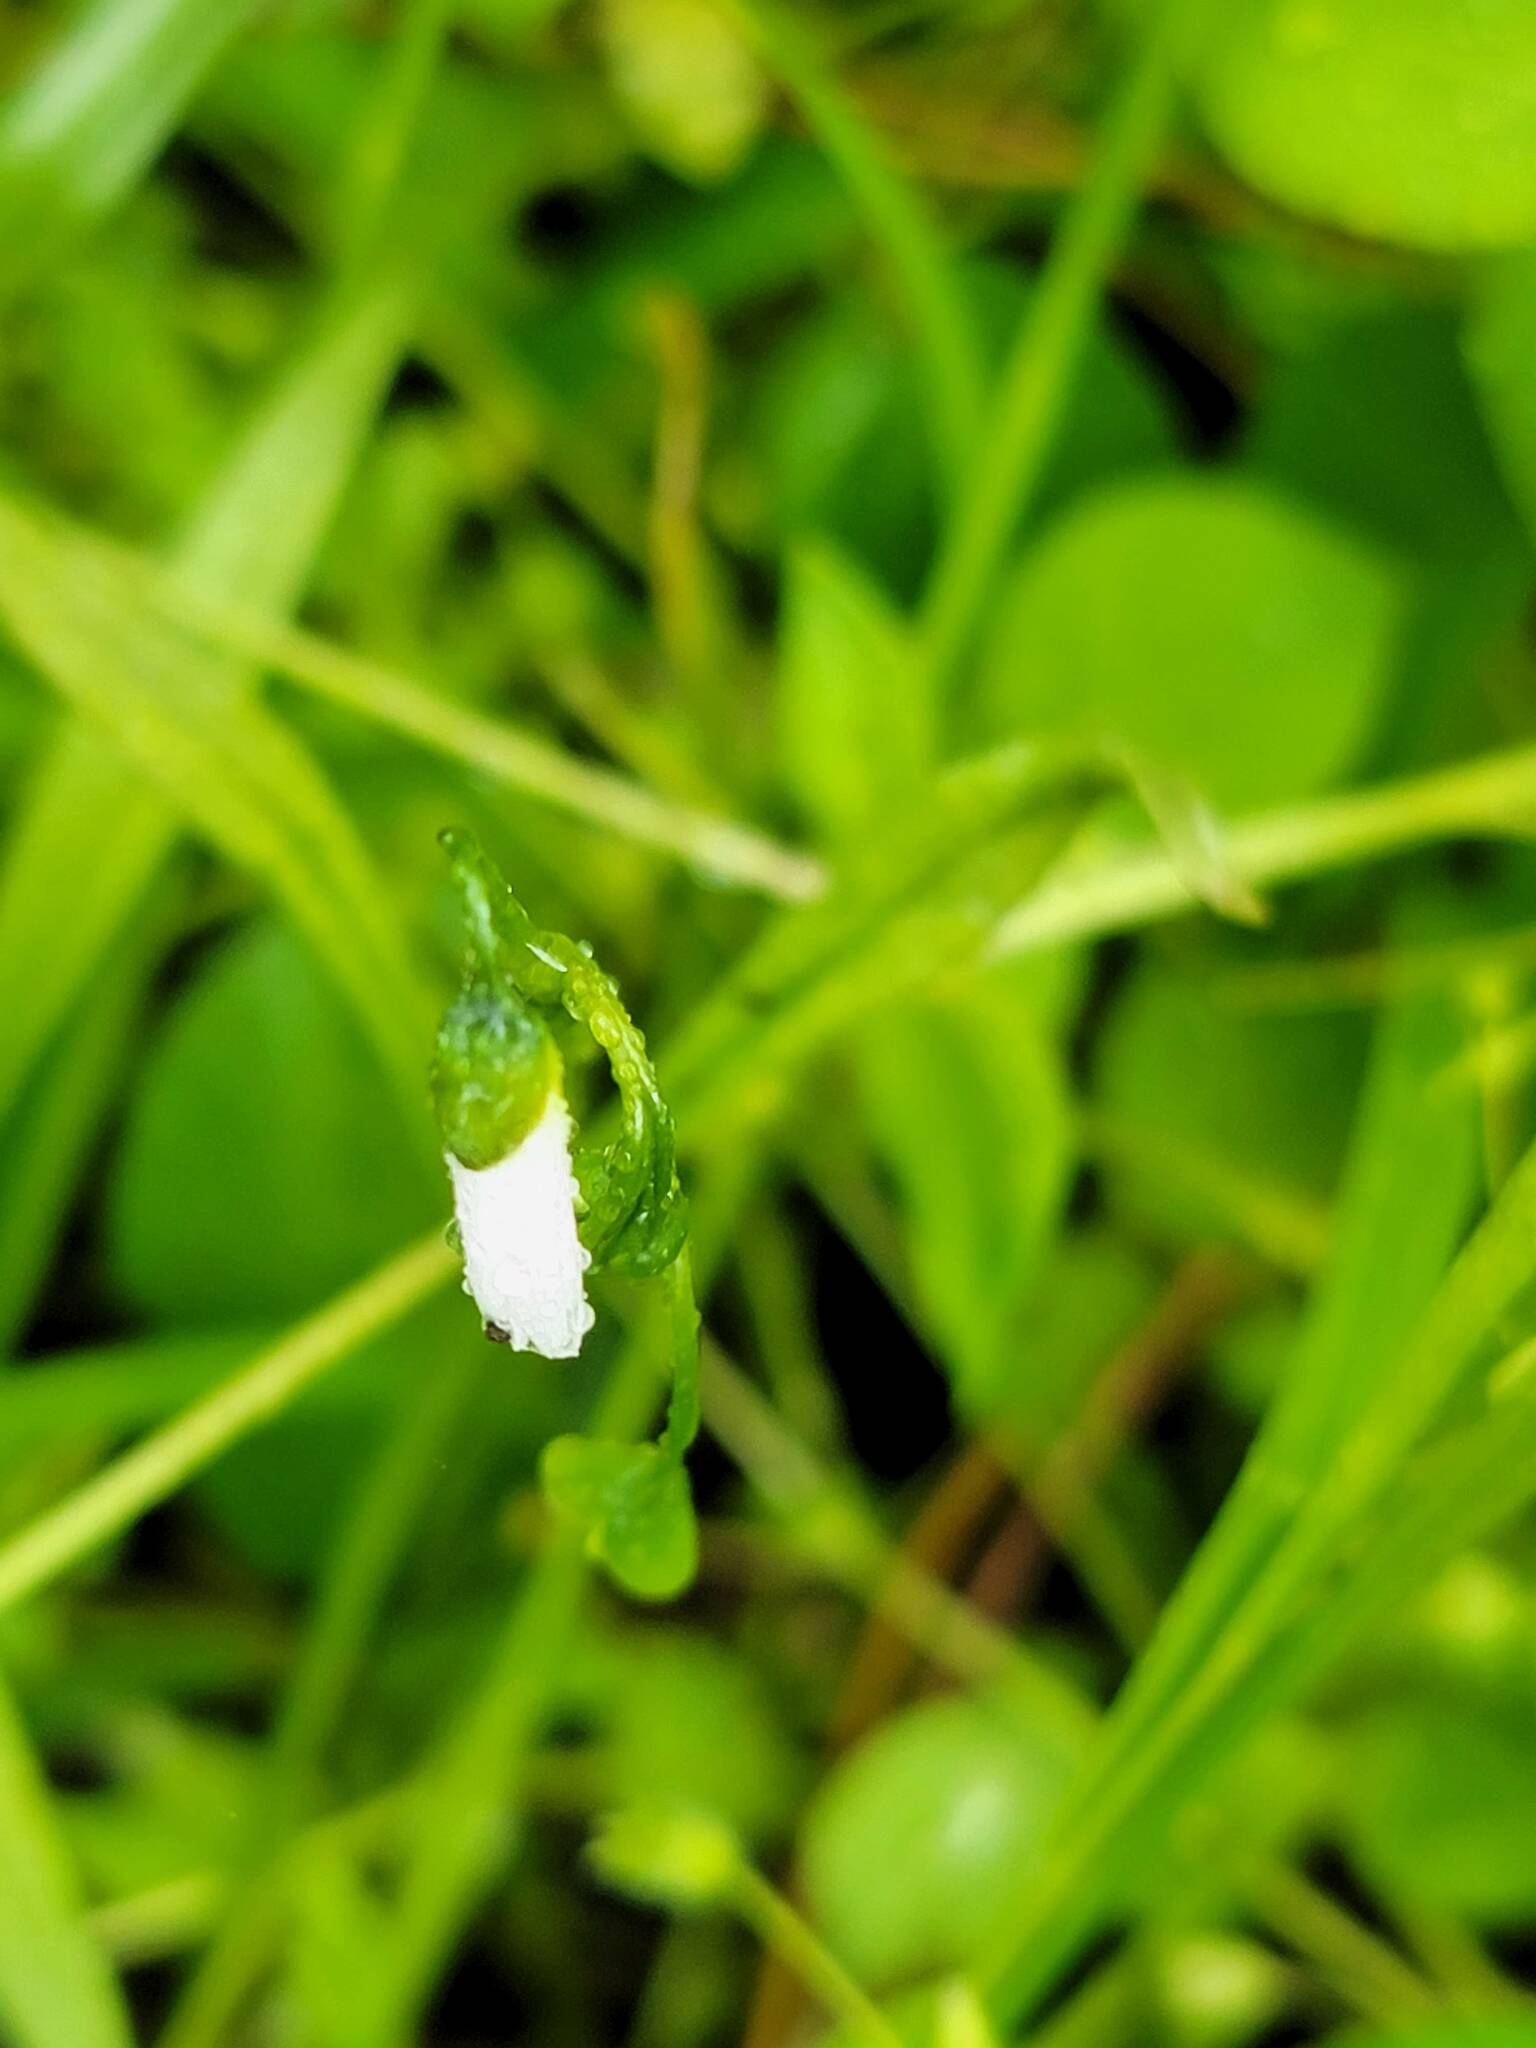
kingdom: Plantae
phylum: Tracheophyta
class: Magnoliopsida
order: Caryophyllales
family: Montiaceae
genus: Claytonia
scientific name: Claytonia virginica
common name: Virginia springbeauty
